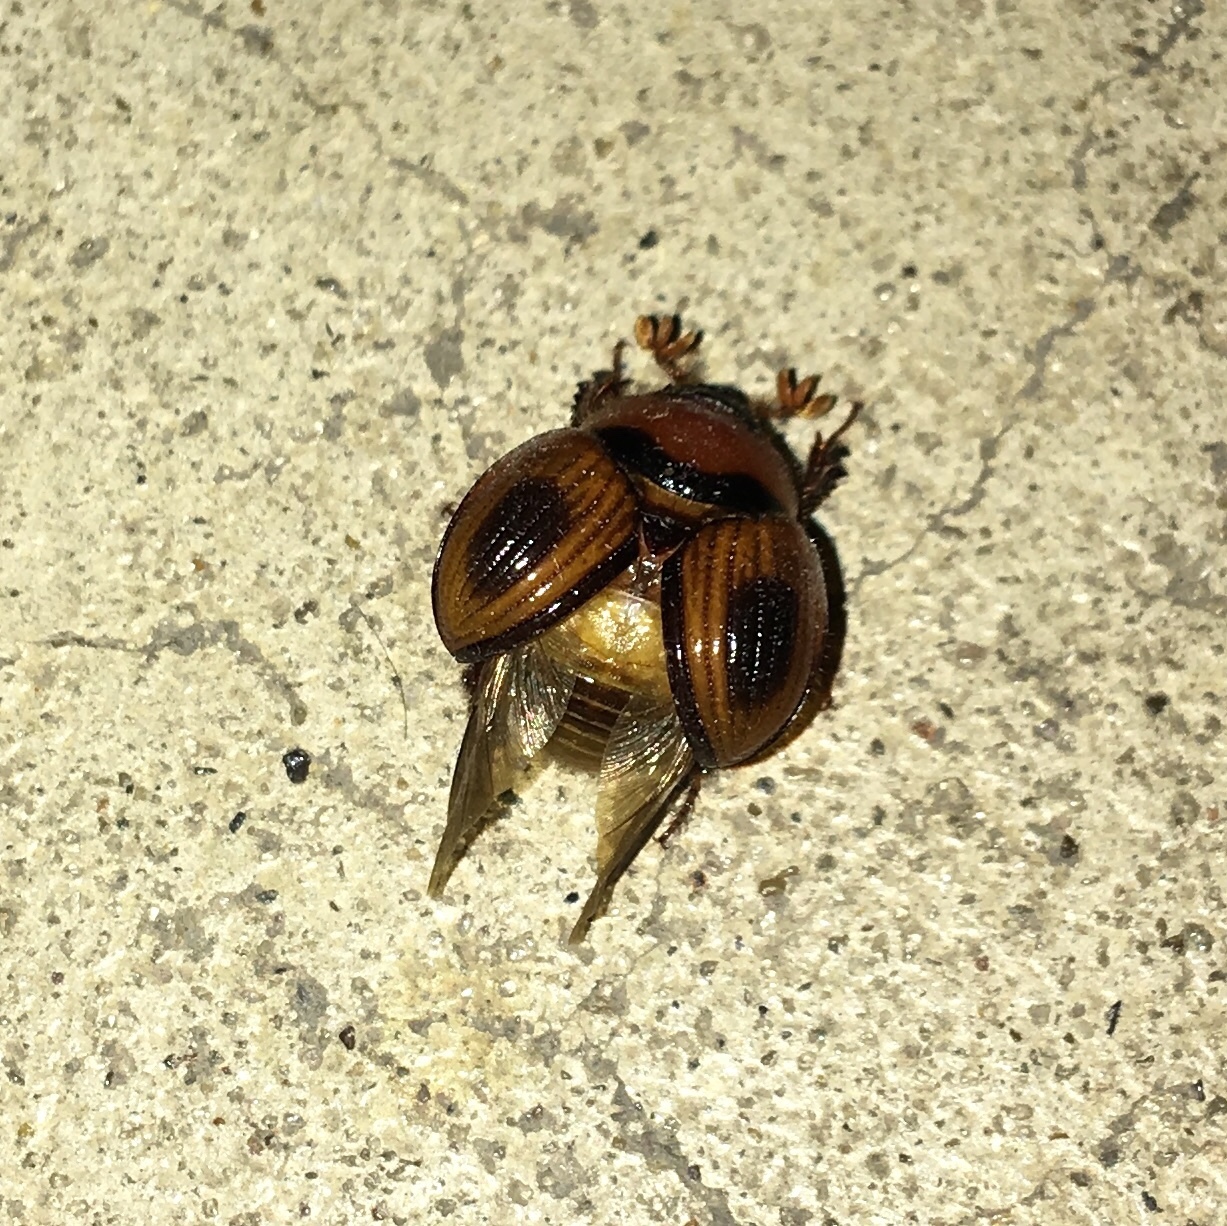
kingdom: Animalia
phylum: Arthropoda
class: Insecta
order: Coleoptera
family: Geotrupidae
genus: Bolbocerosoma
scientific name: Bolbocerosoma confusum
